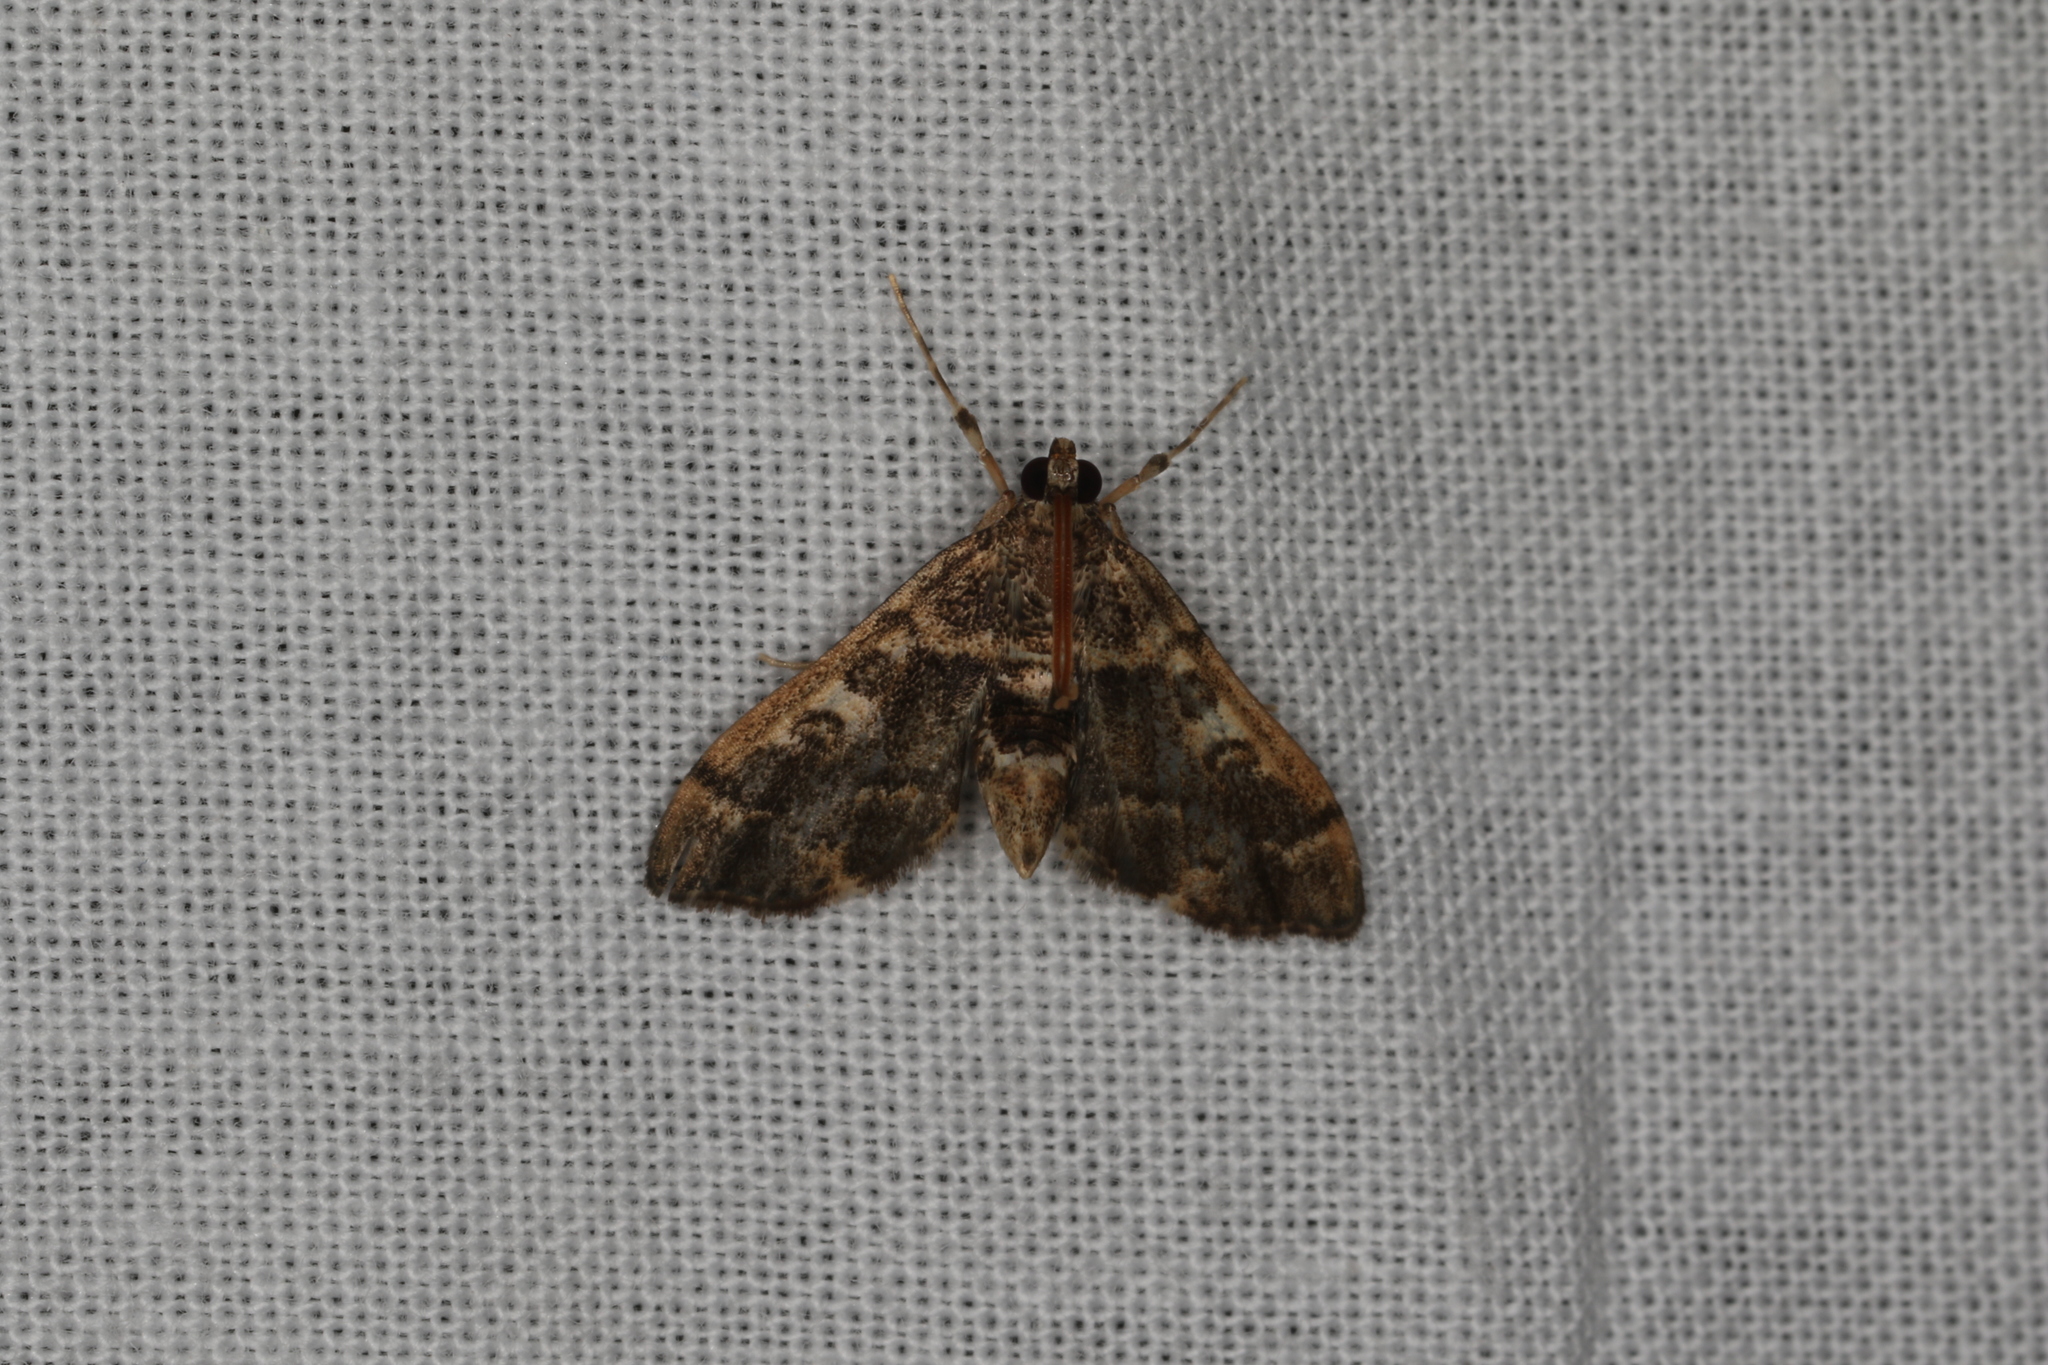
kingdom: Animalia
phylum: Arthropoda
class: Insecta
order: Lepidoptera
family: Crambidae
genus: Nacoleia
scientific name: Nacoleia rhoeoalis
